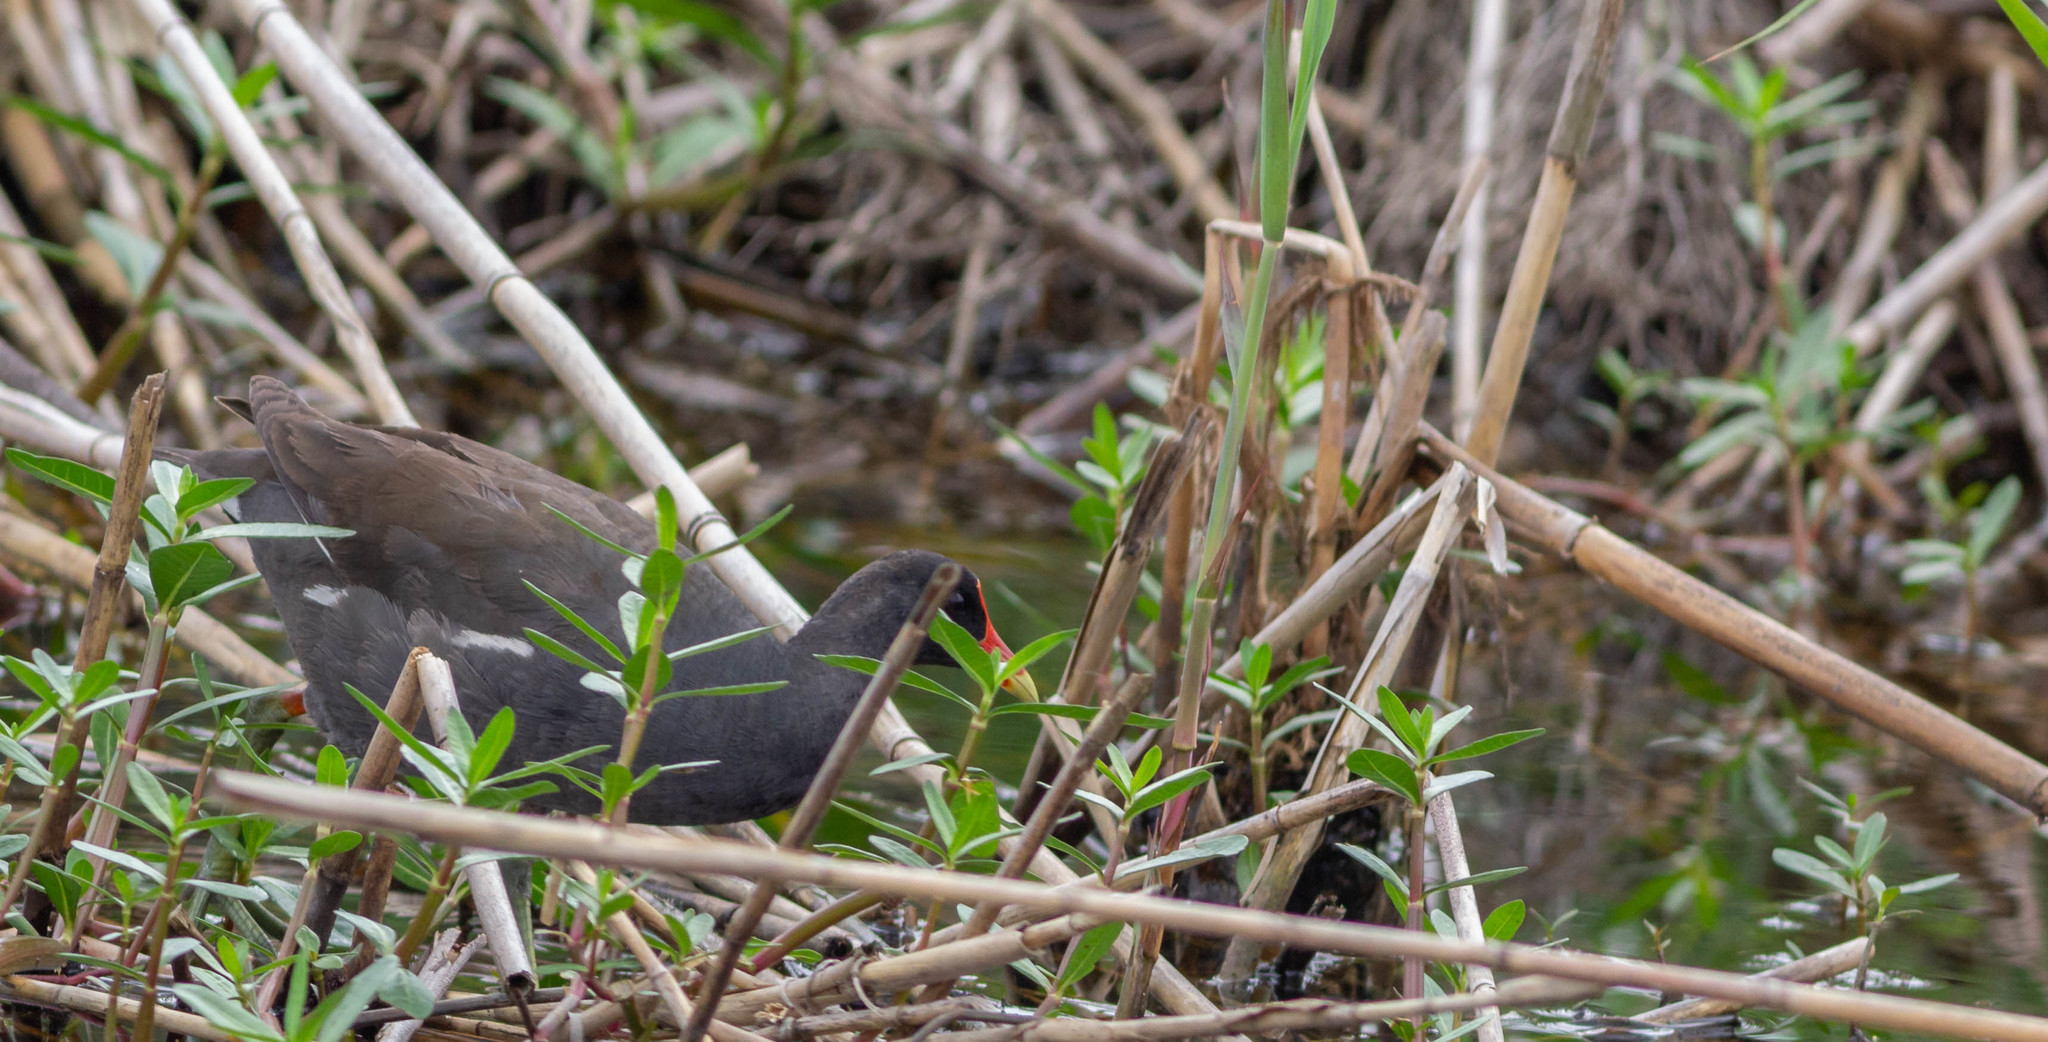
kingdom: Animalia
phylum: Chordata
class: Aves
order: Gruiformes
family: Rallidae
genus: Gallinula
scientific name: Gallinula chloropus
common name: Common moorhen
